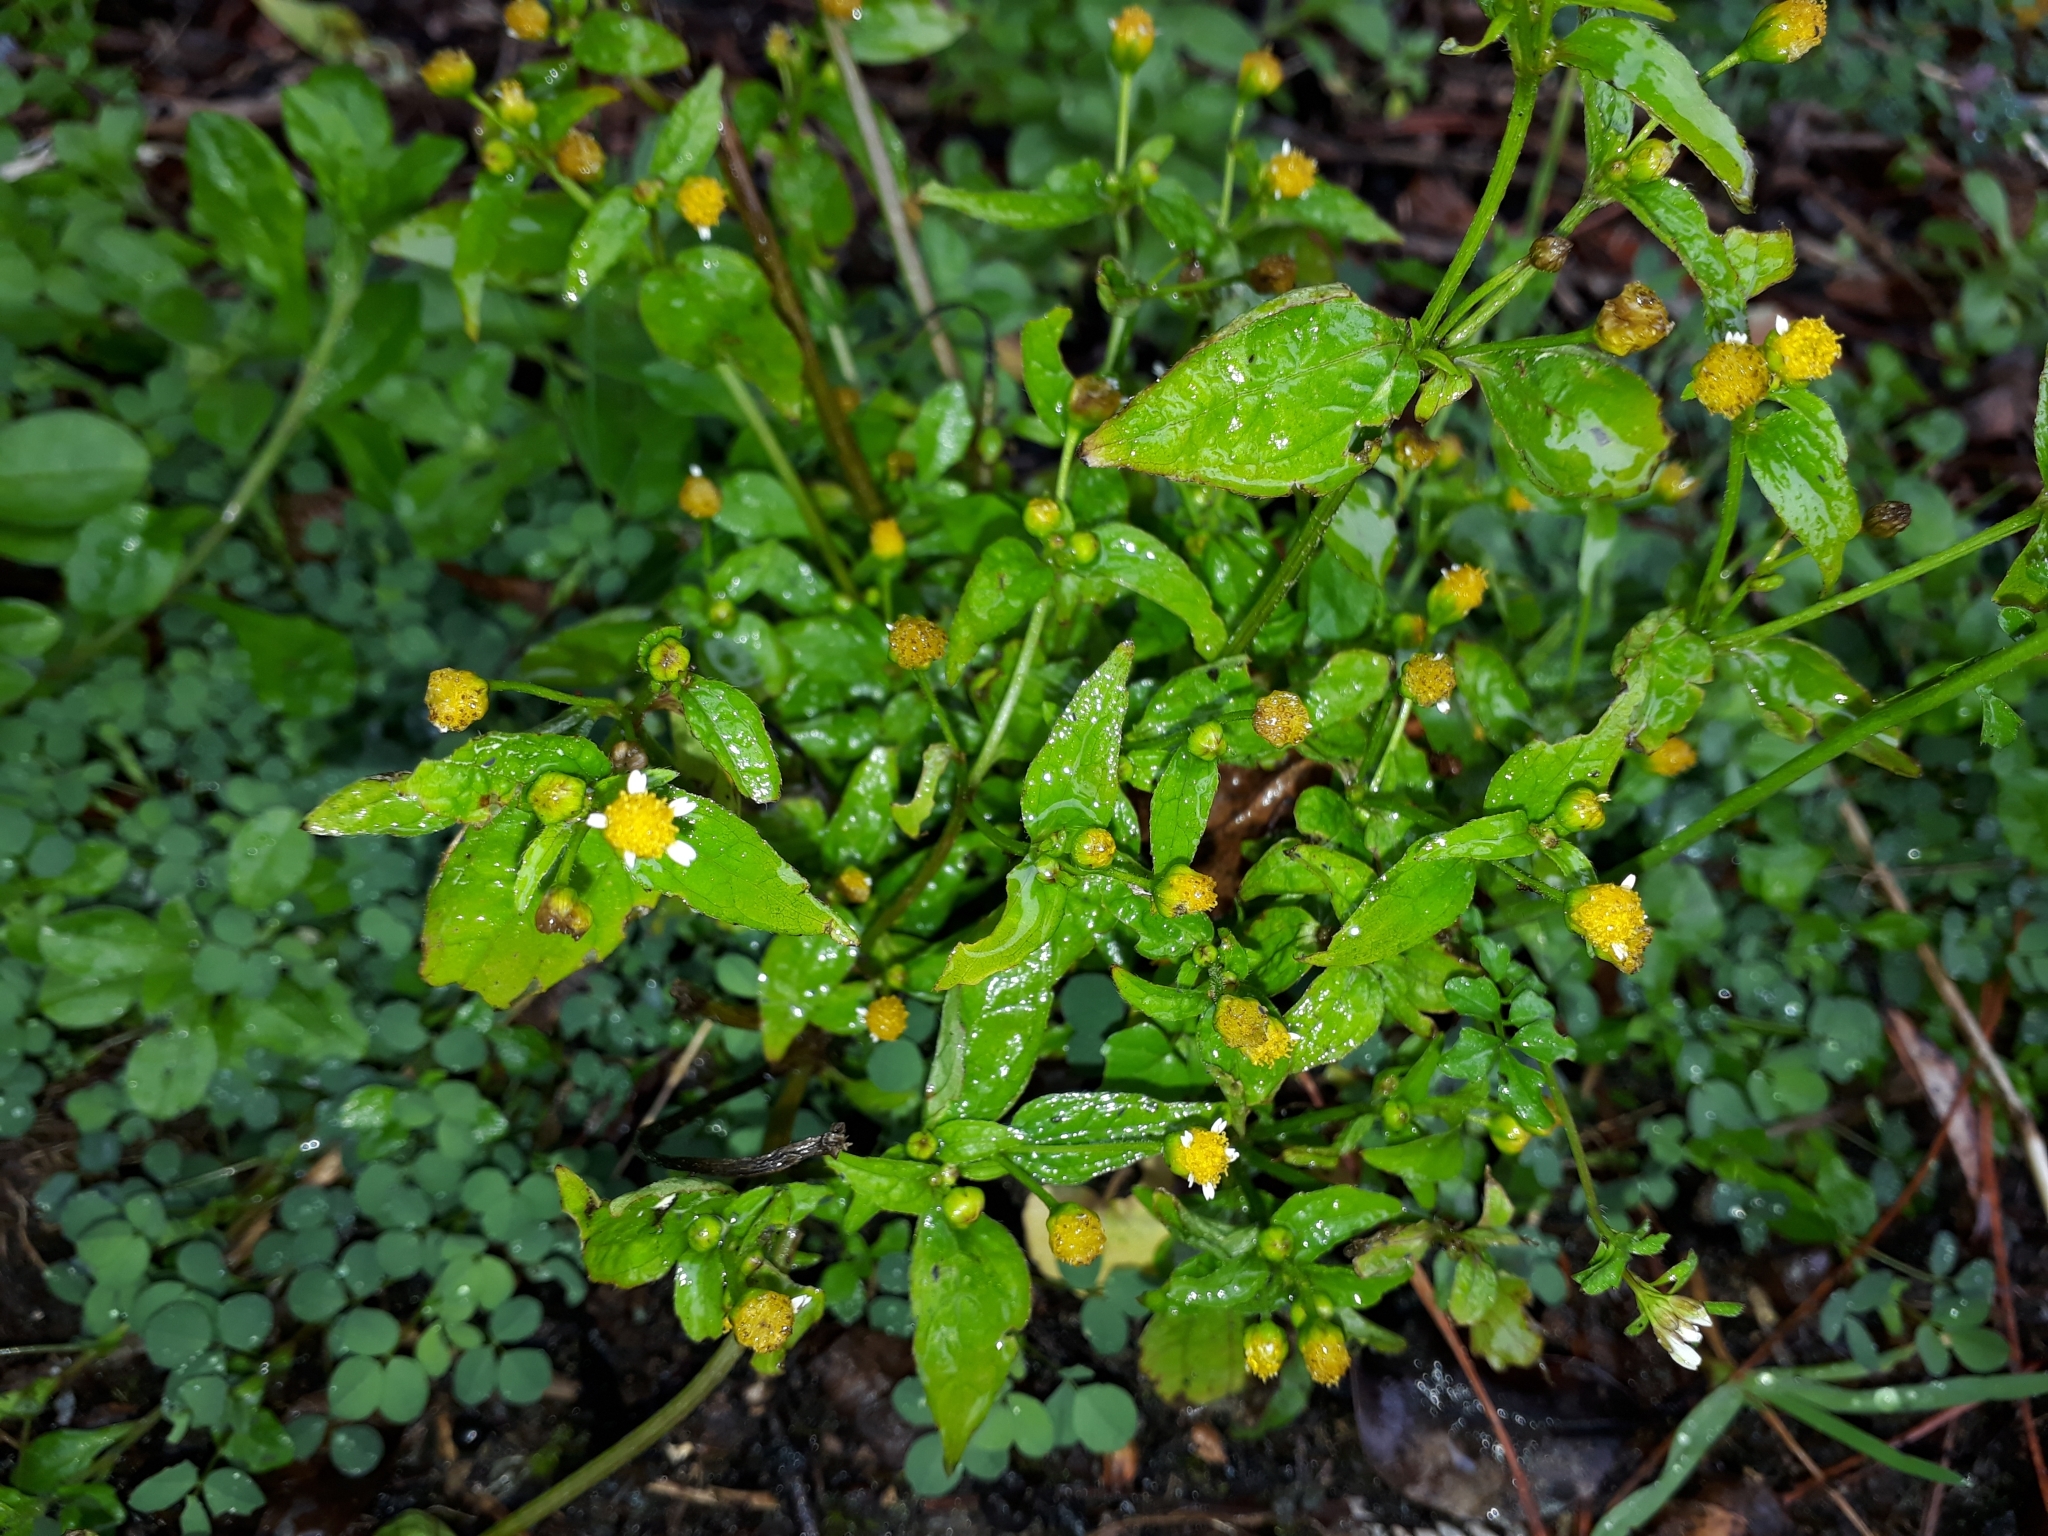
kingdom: Plantae
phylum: Tracheophyta
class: Magnoliopsida
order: Asterales
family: Asteraceae
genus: Galinsoga
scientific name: Galinsoga parviflora
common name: Gallant soldier
